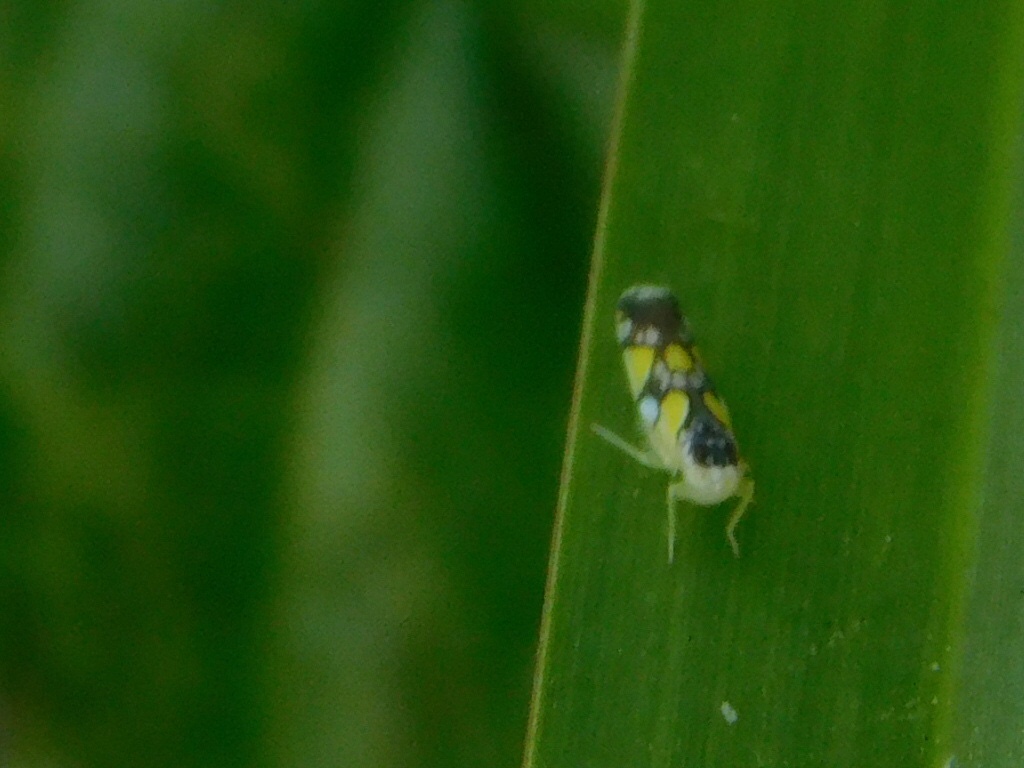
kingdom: Animalia
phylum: Arthropoda
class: Insecta
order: Hemiptera
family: Cicadellidae
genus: Protalebrella
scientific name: Protalebrella brasiliensis
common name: Brasilian leafhopper
